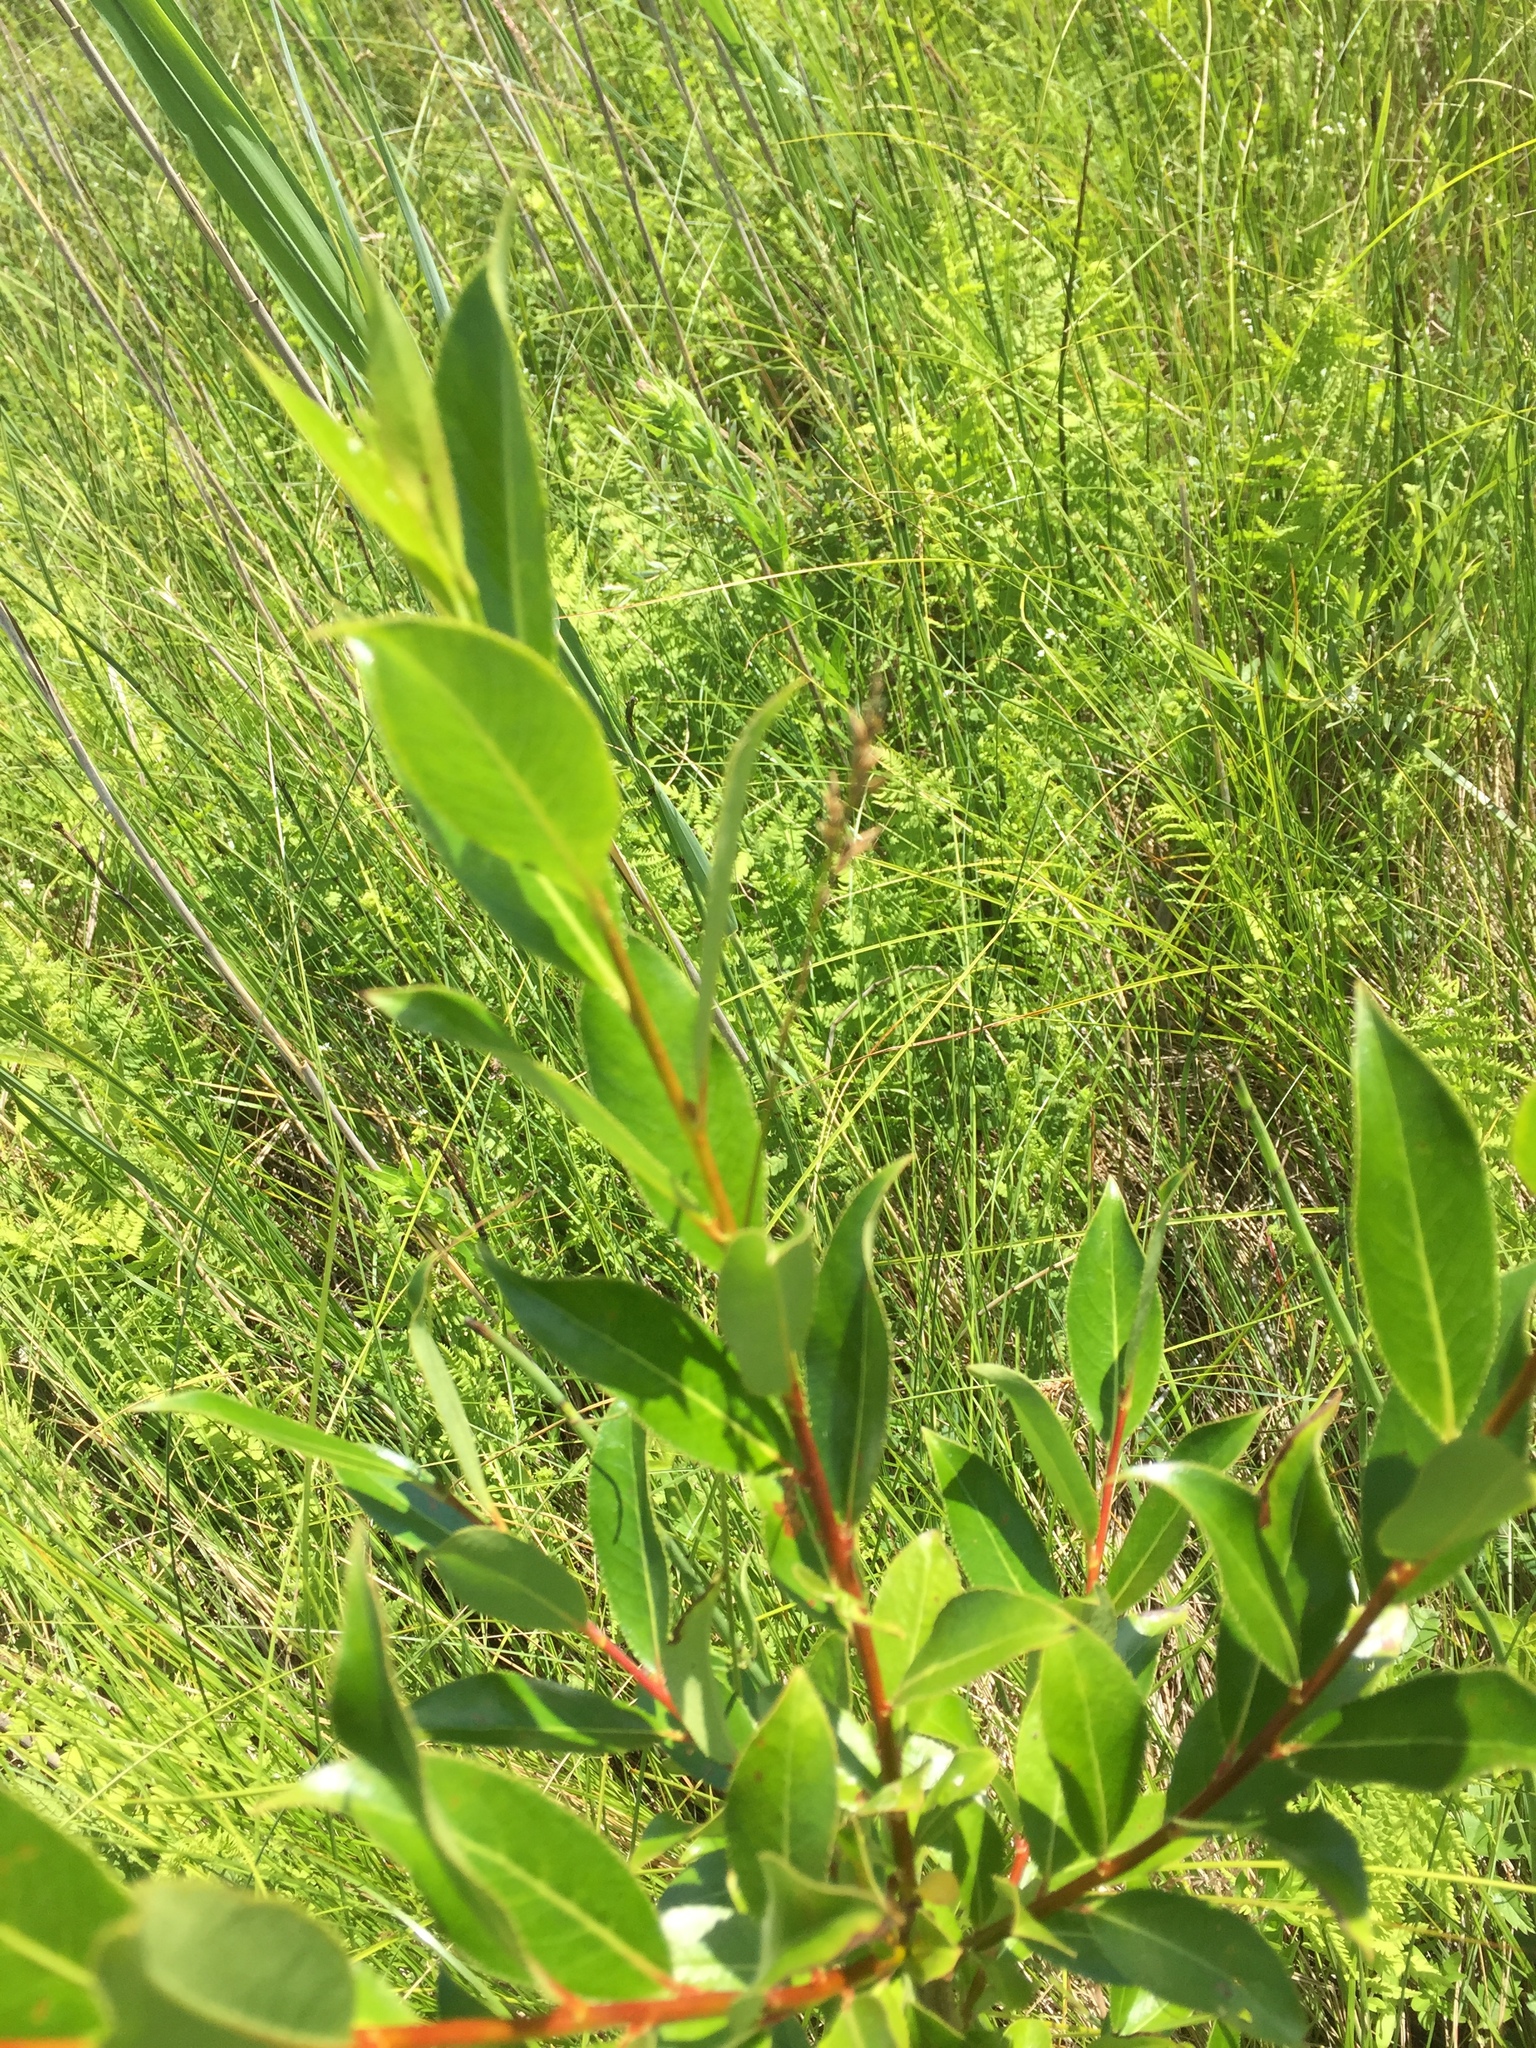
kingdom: Plantae
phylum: Tracheophyta
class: Magnoliopsida
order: Malpighiales
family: Salicaceae
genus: Salix
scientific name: Salix pentandra
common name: Bay willow
